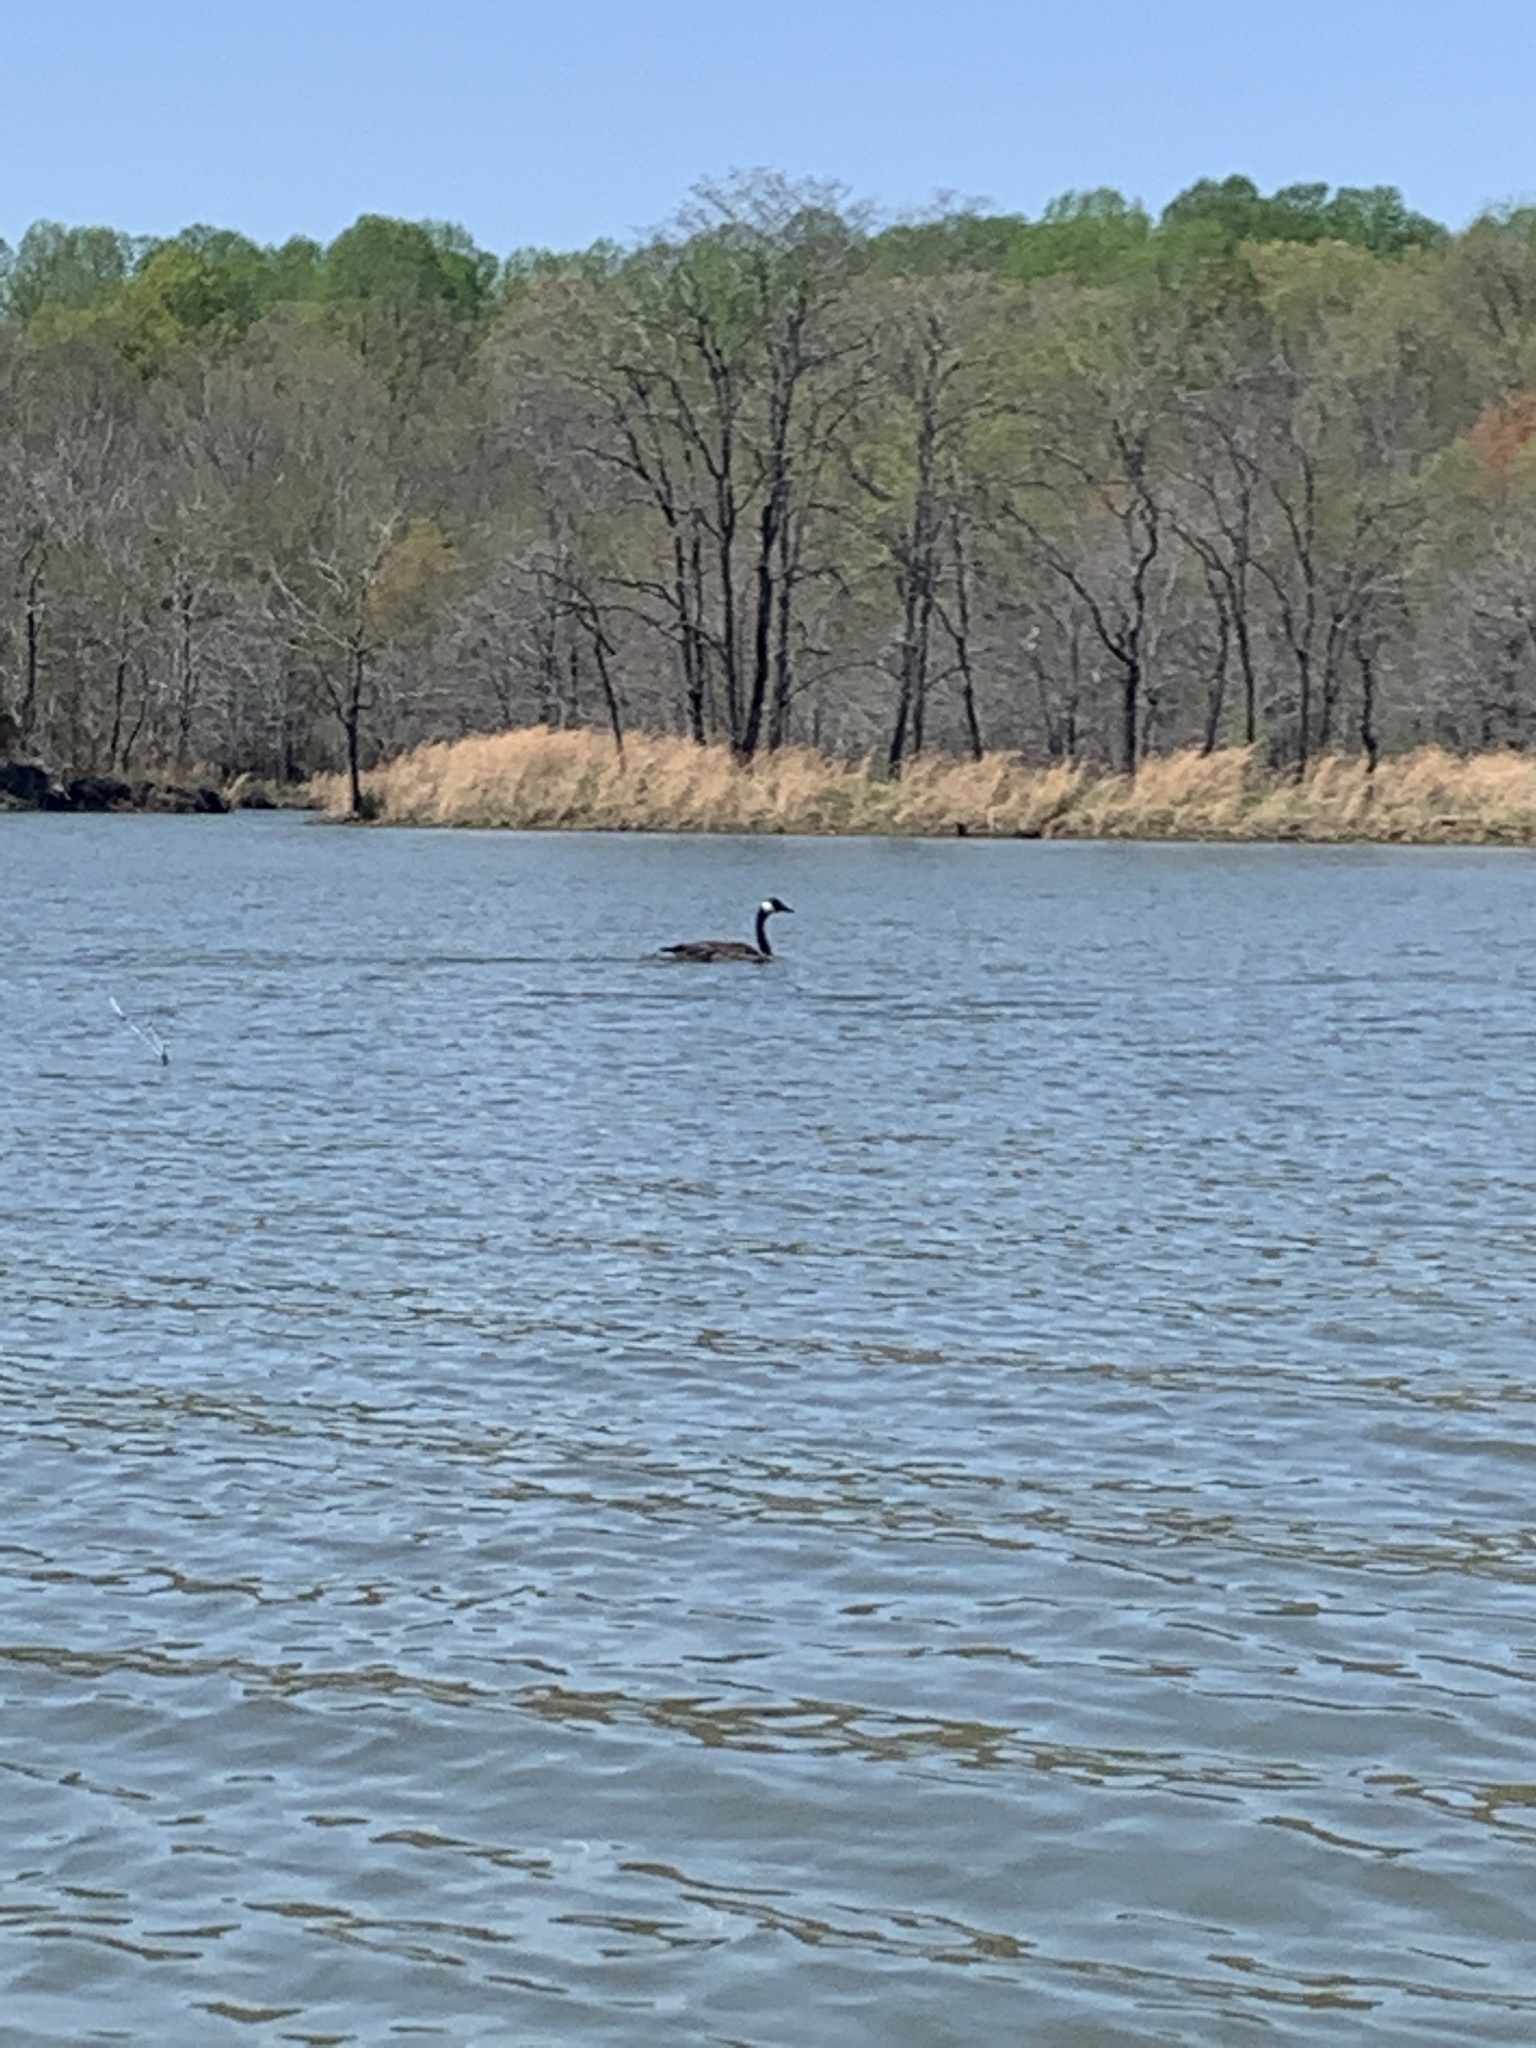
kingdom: Animalia
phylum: Chordata
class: Aves
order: Anseriformes
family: Anatidae
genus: Branta
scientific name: Branta canadensis
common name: Canada goose
